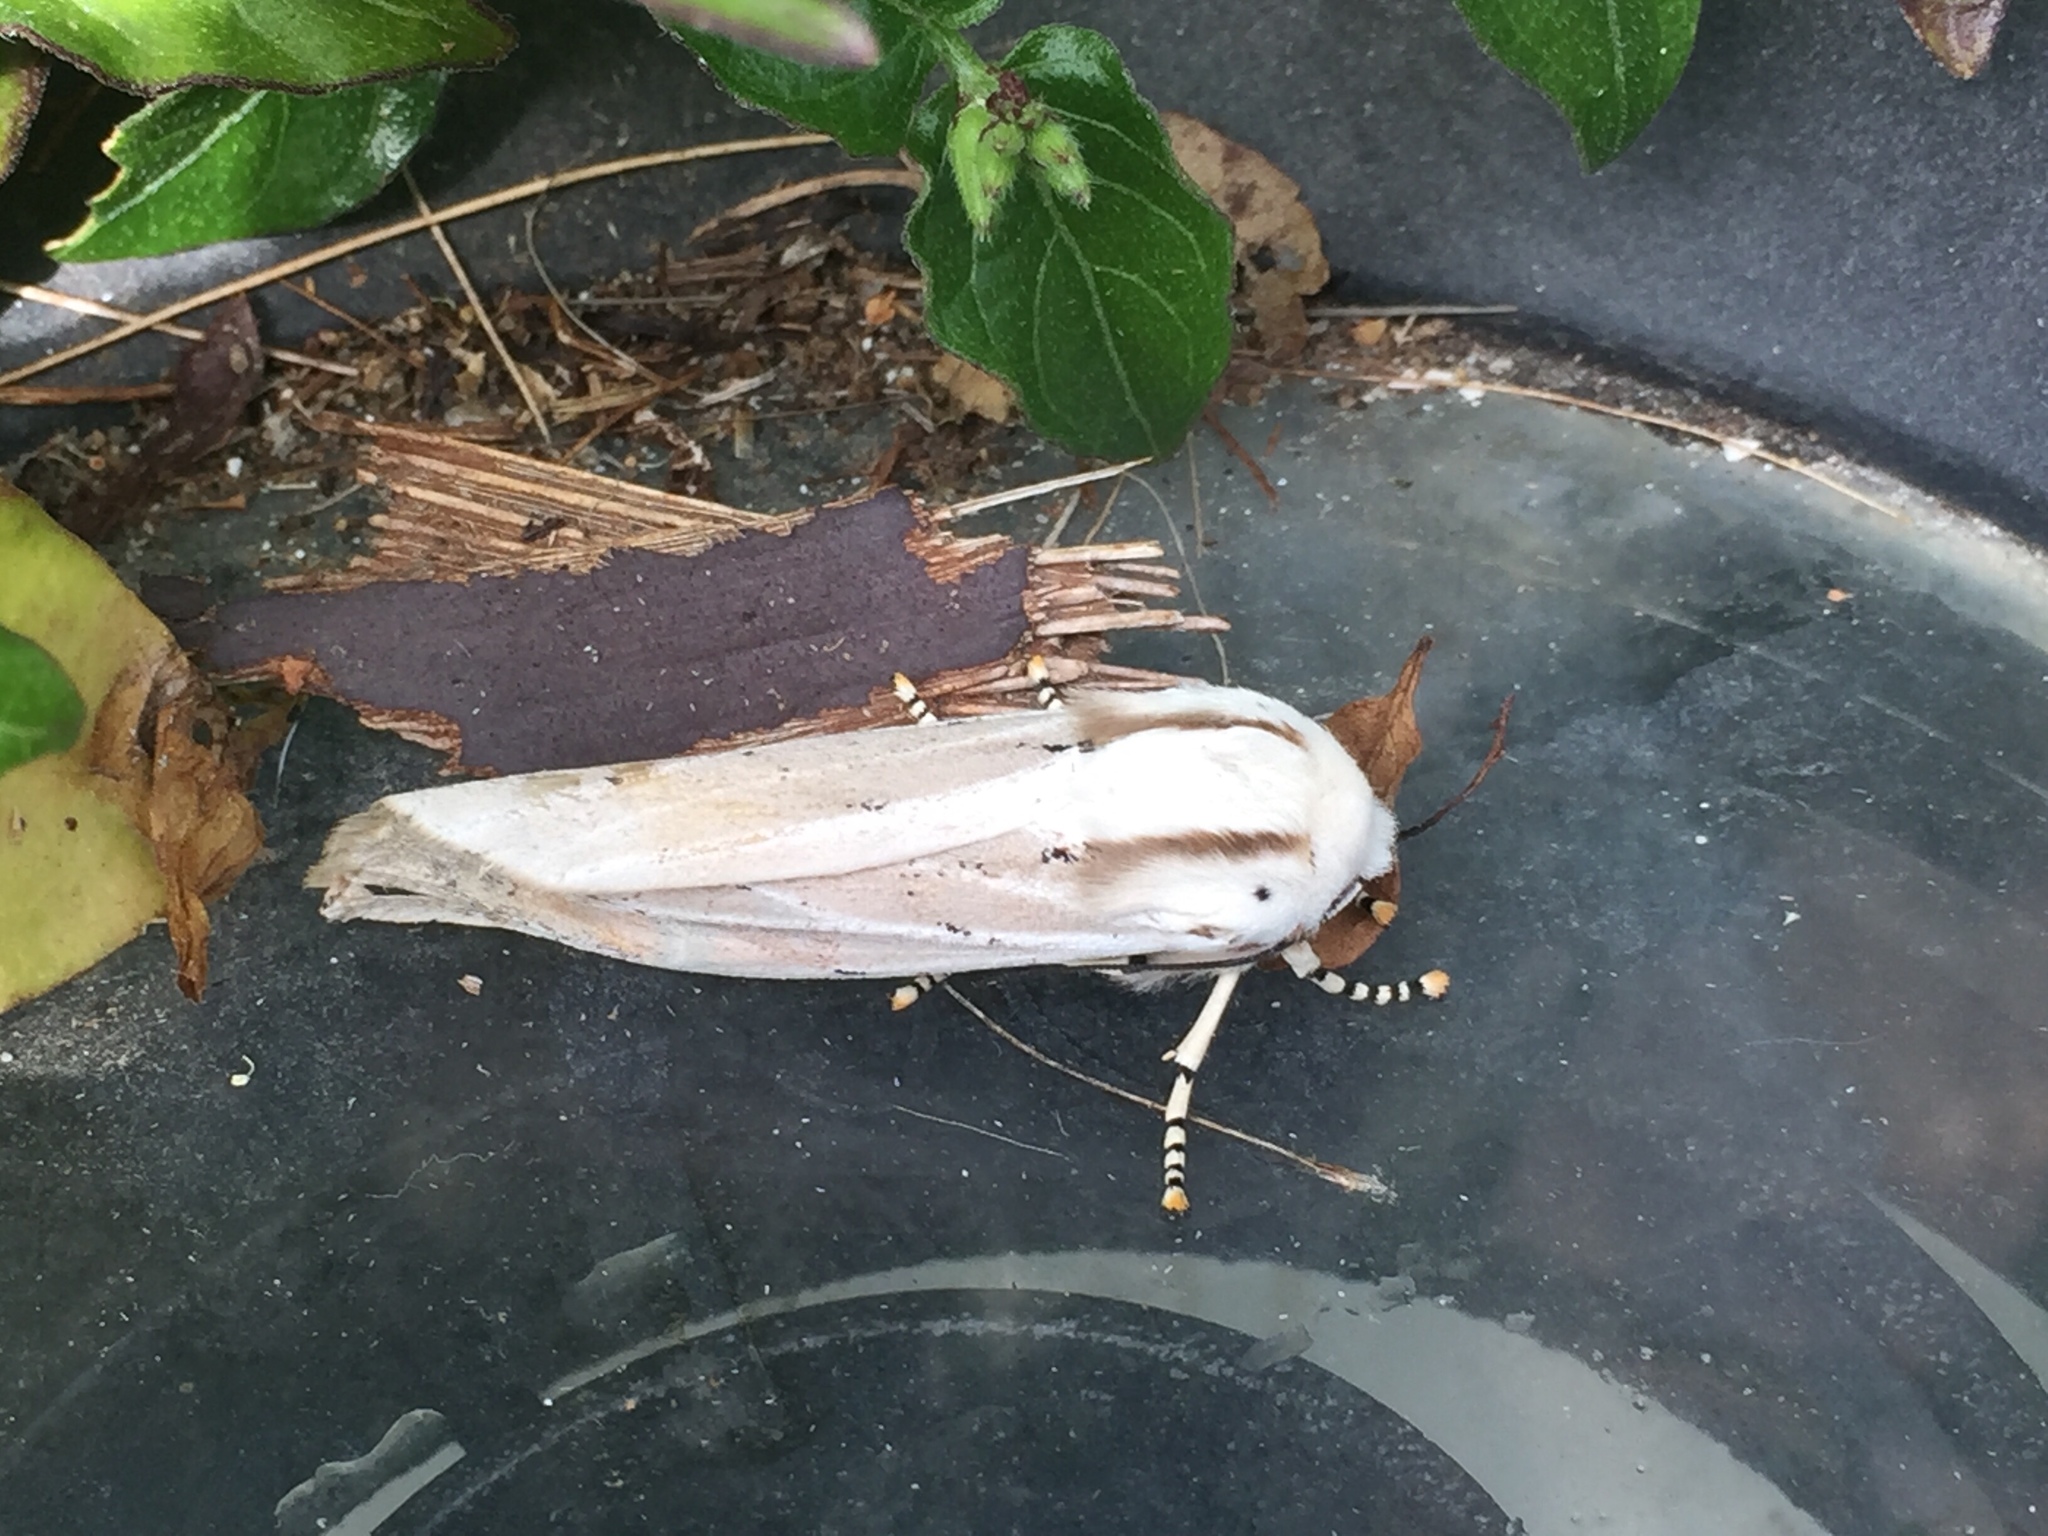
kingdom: Animalia
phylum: Arthropoda
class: Insecta
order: Lepidoptera
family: Erebidae
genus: Rhodogastria
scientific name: Rhodogastria amasis
